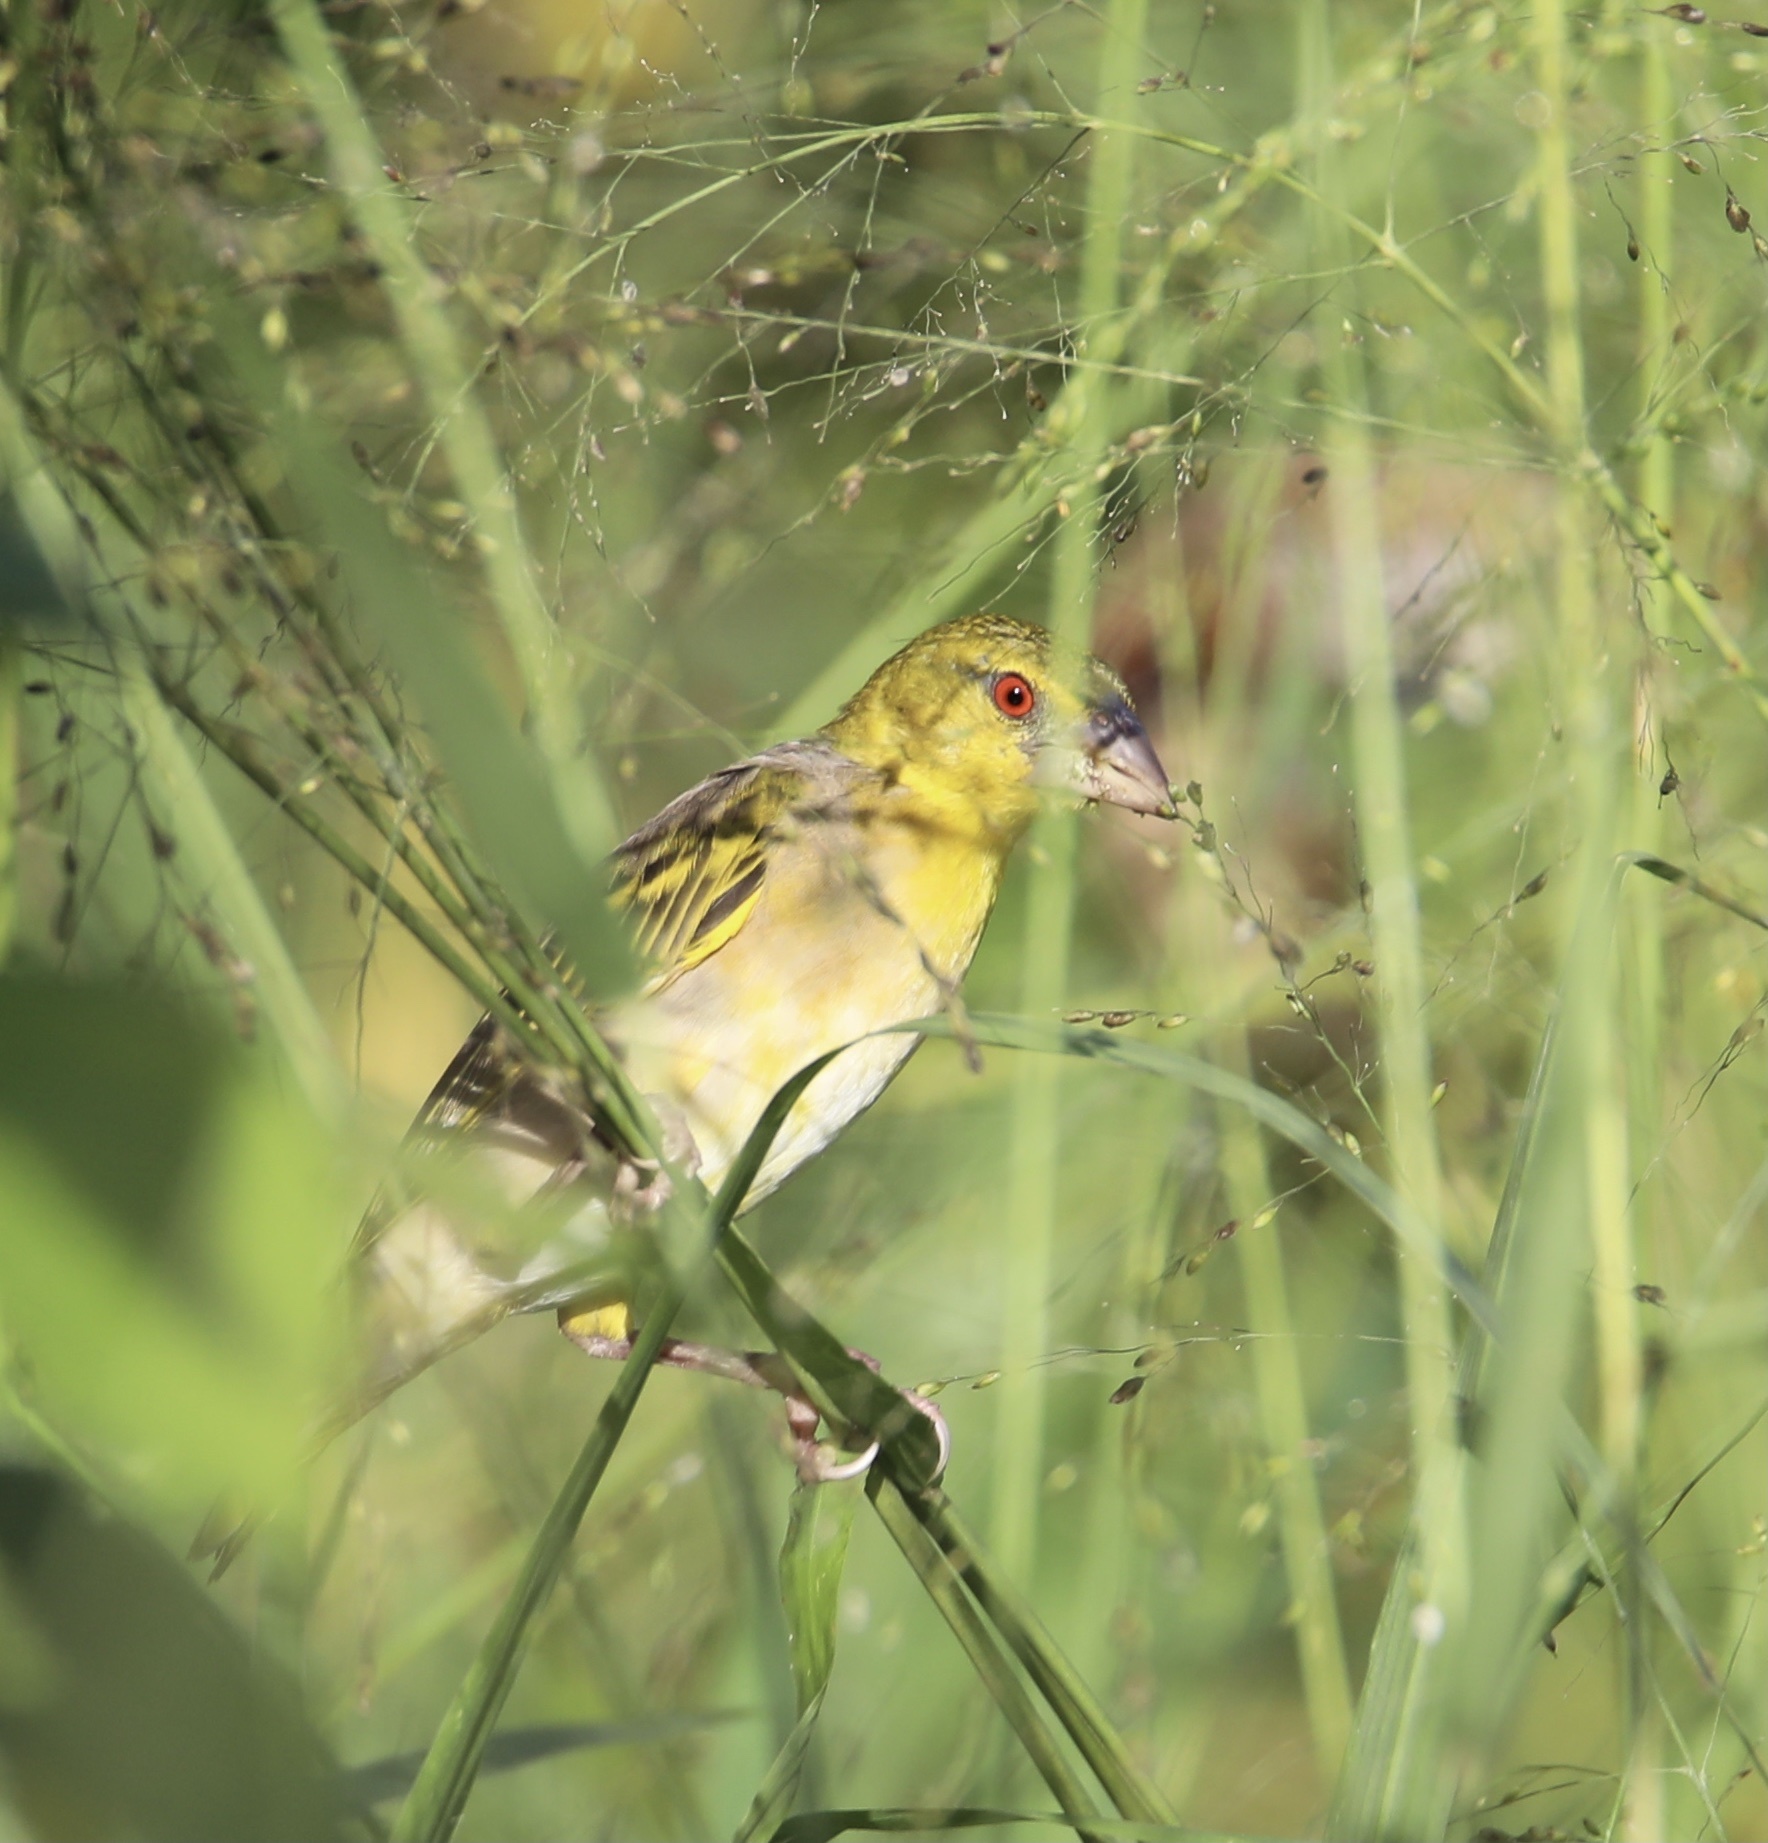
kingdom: Animalia
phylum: Chordata
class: Aves
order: Passeriformes
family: Ploceidae
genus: Ploceus
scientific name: Ploceus cucullatus
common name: Village weaver
